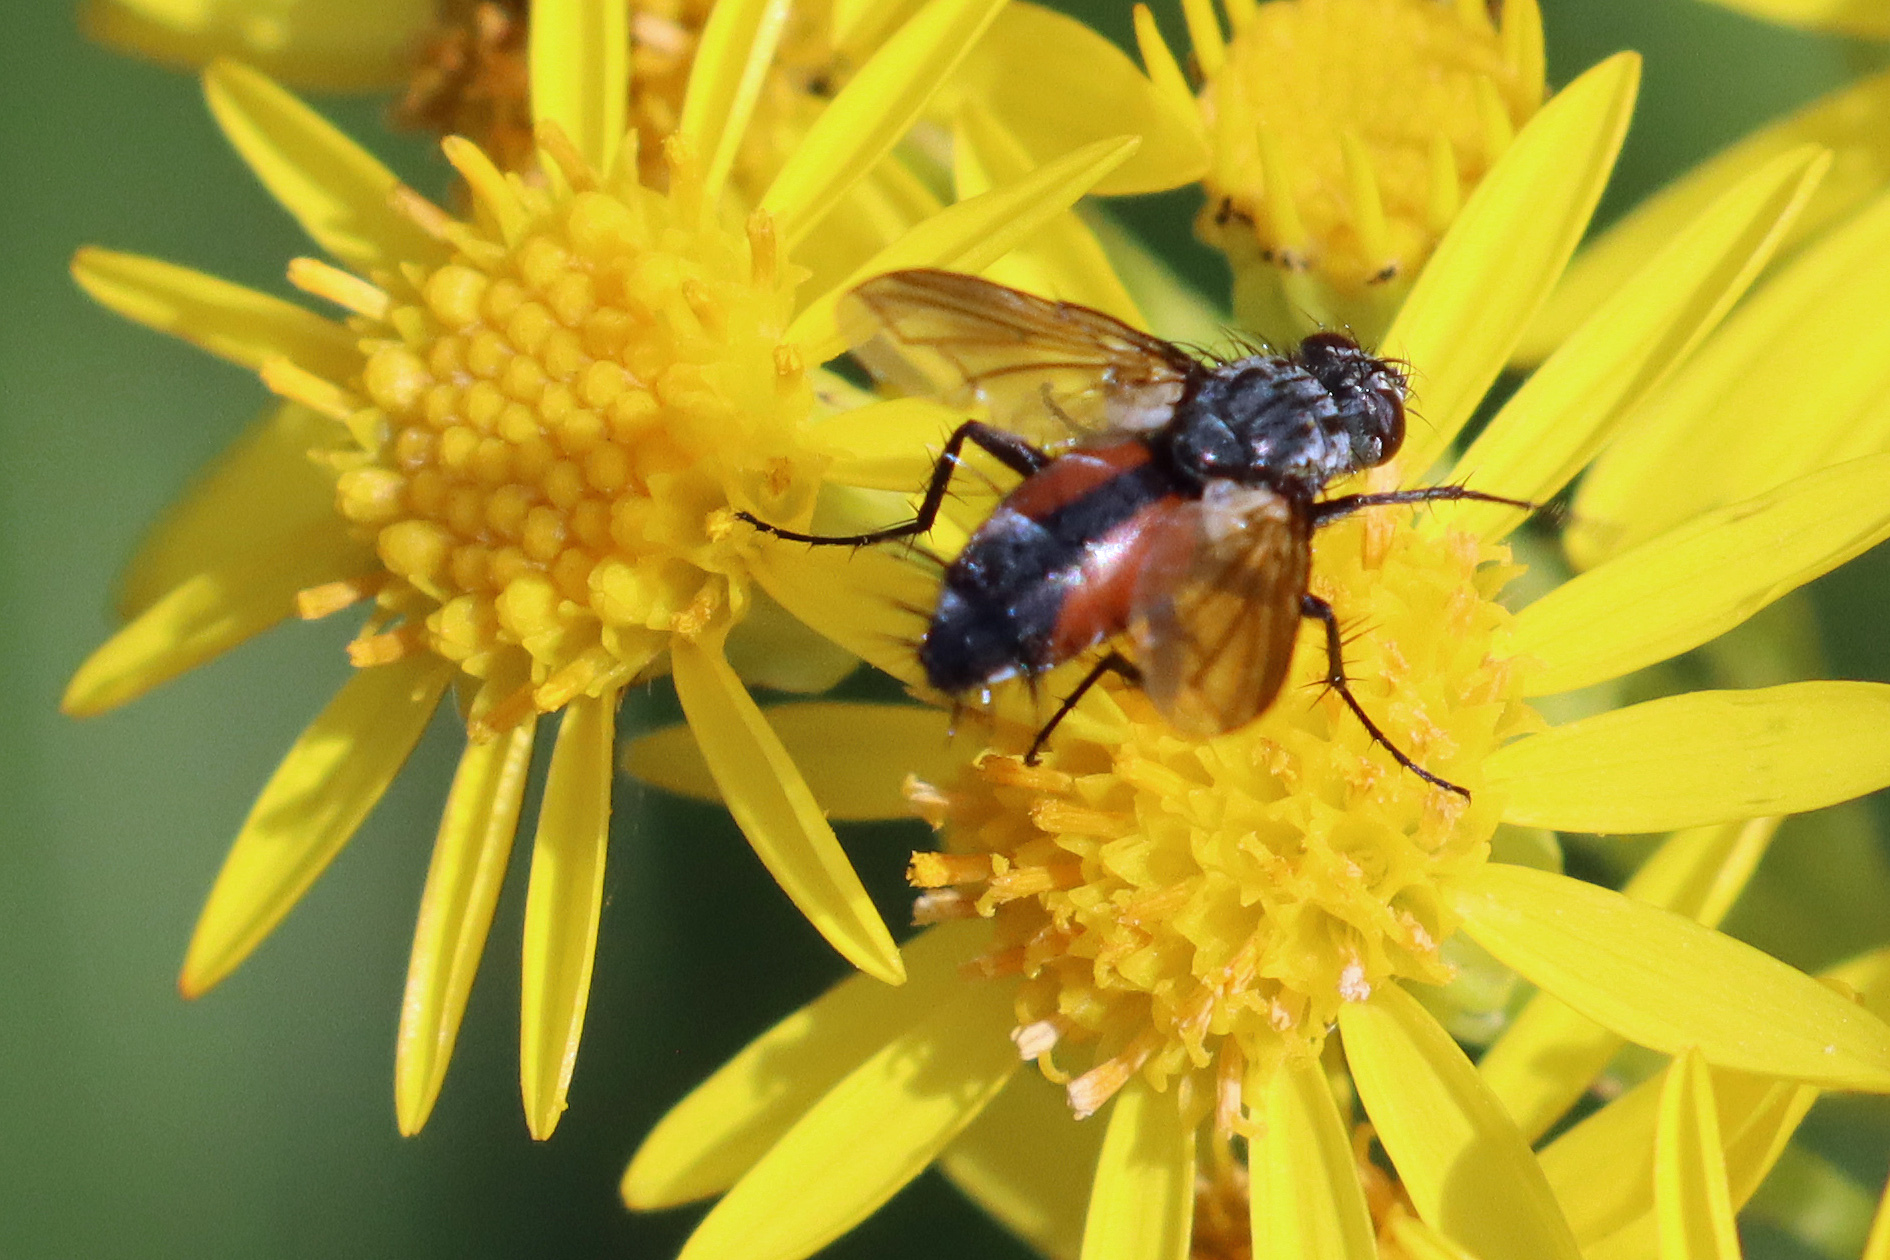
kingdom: Animalia
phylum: Arthropoda
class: Insecta
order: Diptera
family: Tachinidae
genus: Eriothrix
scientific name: Eriothrix rufomaculatus
